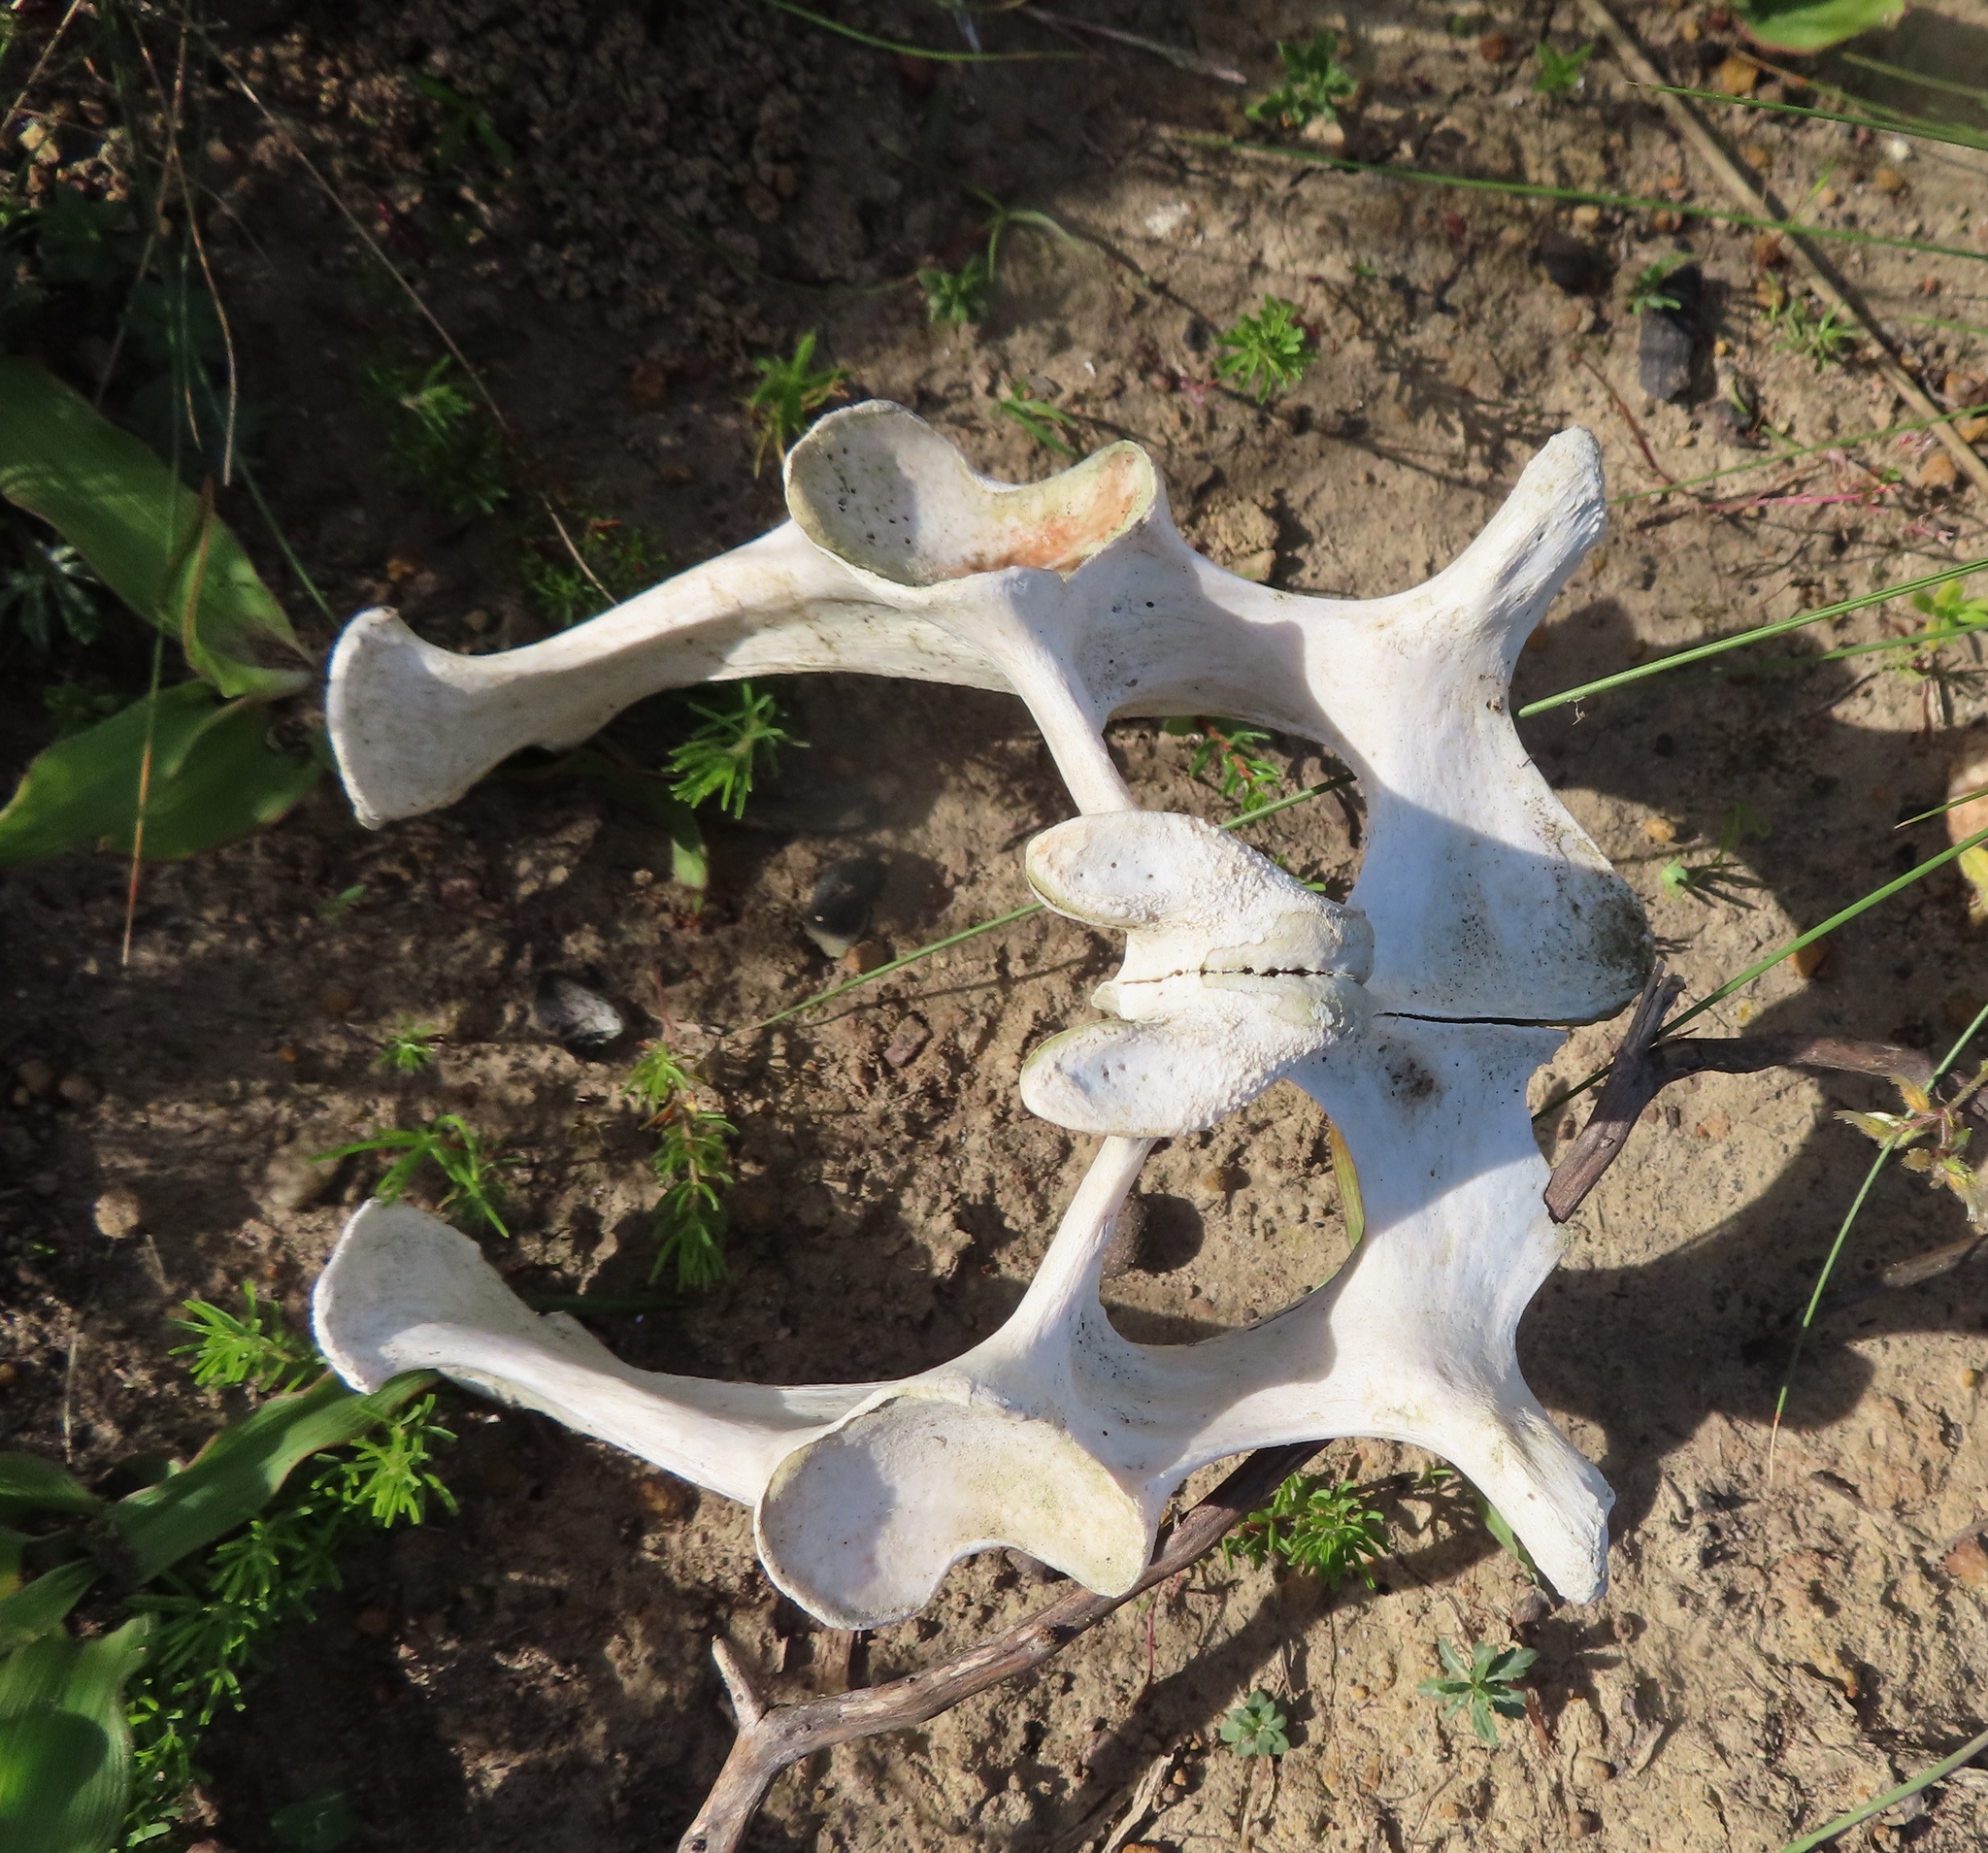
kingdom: Animalia
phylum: Chordata
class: Testudines
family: Testudinidae
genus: Stigmochelys
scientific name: Stigmochelys pardalis
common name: Leopard tortoise
